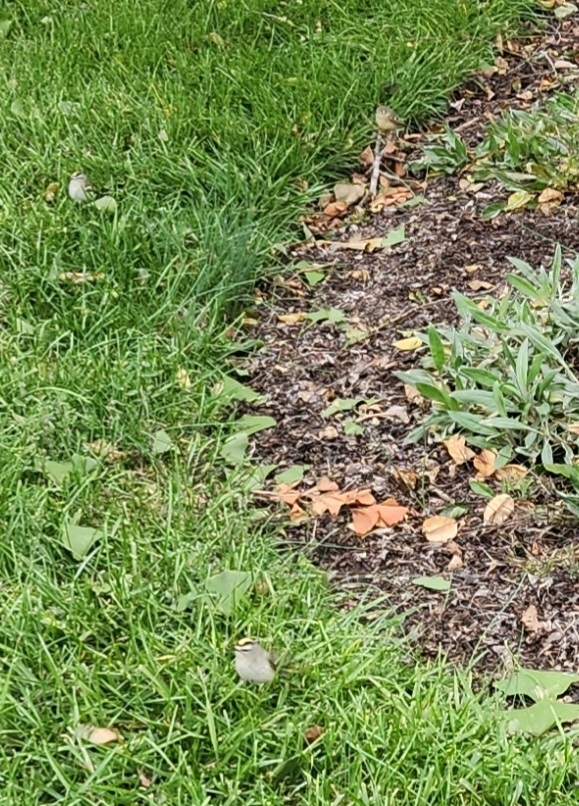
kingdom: Animalia
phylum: Chordata
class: Aves
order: Passeriformes
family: Regulidae
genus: Regulus
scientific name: Regulus satrapa
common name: Golden-crowned kinglet
